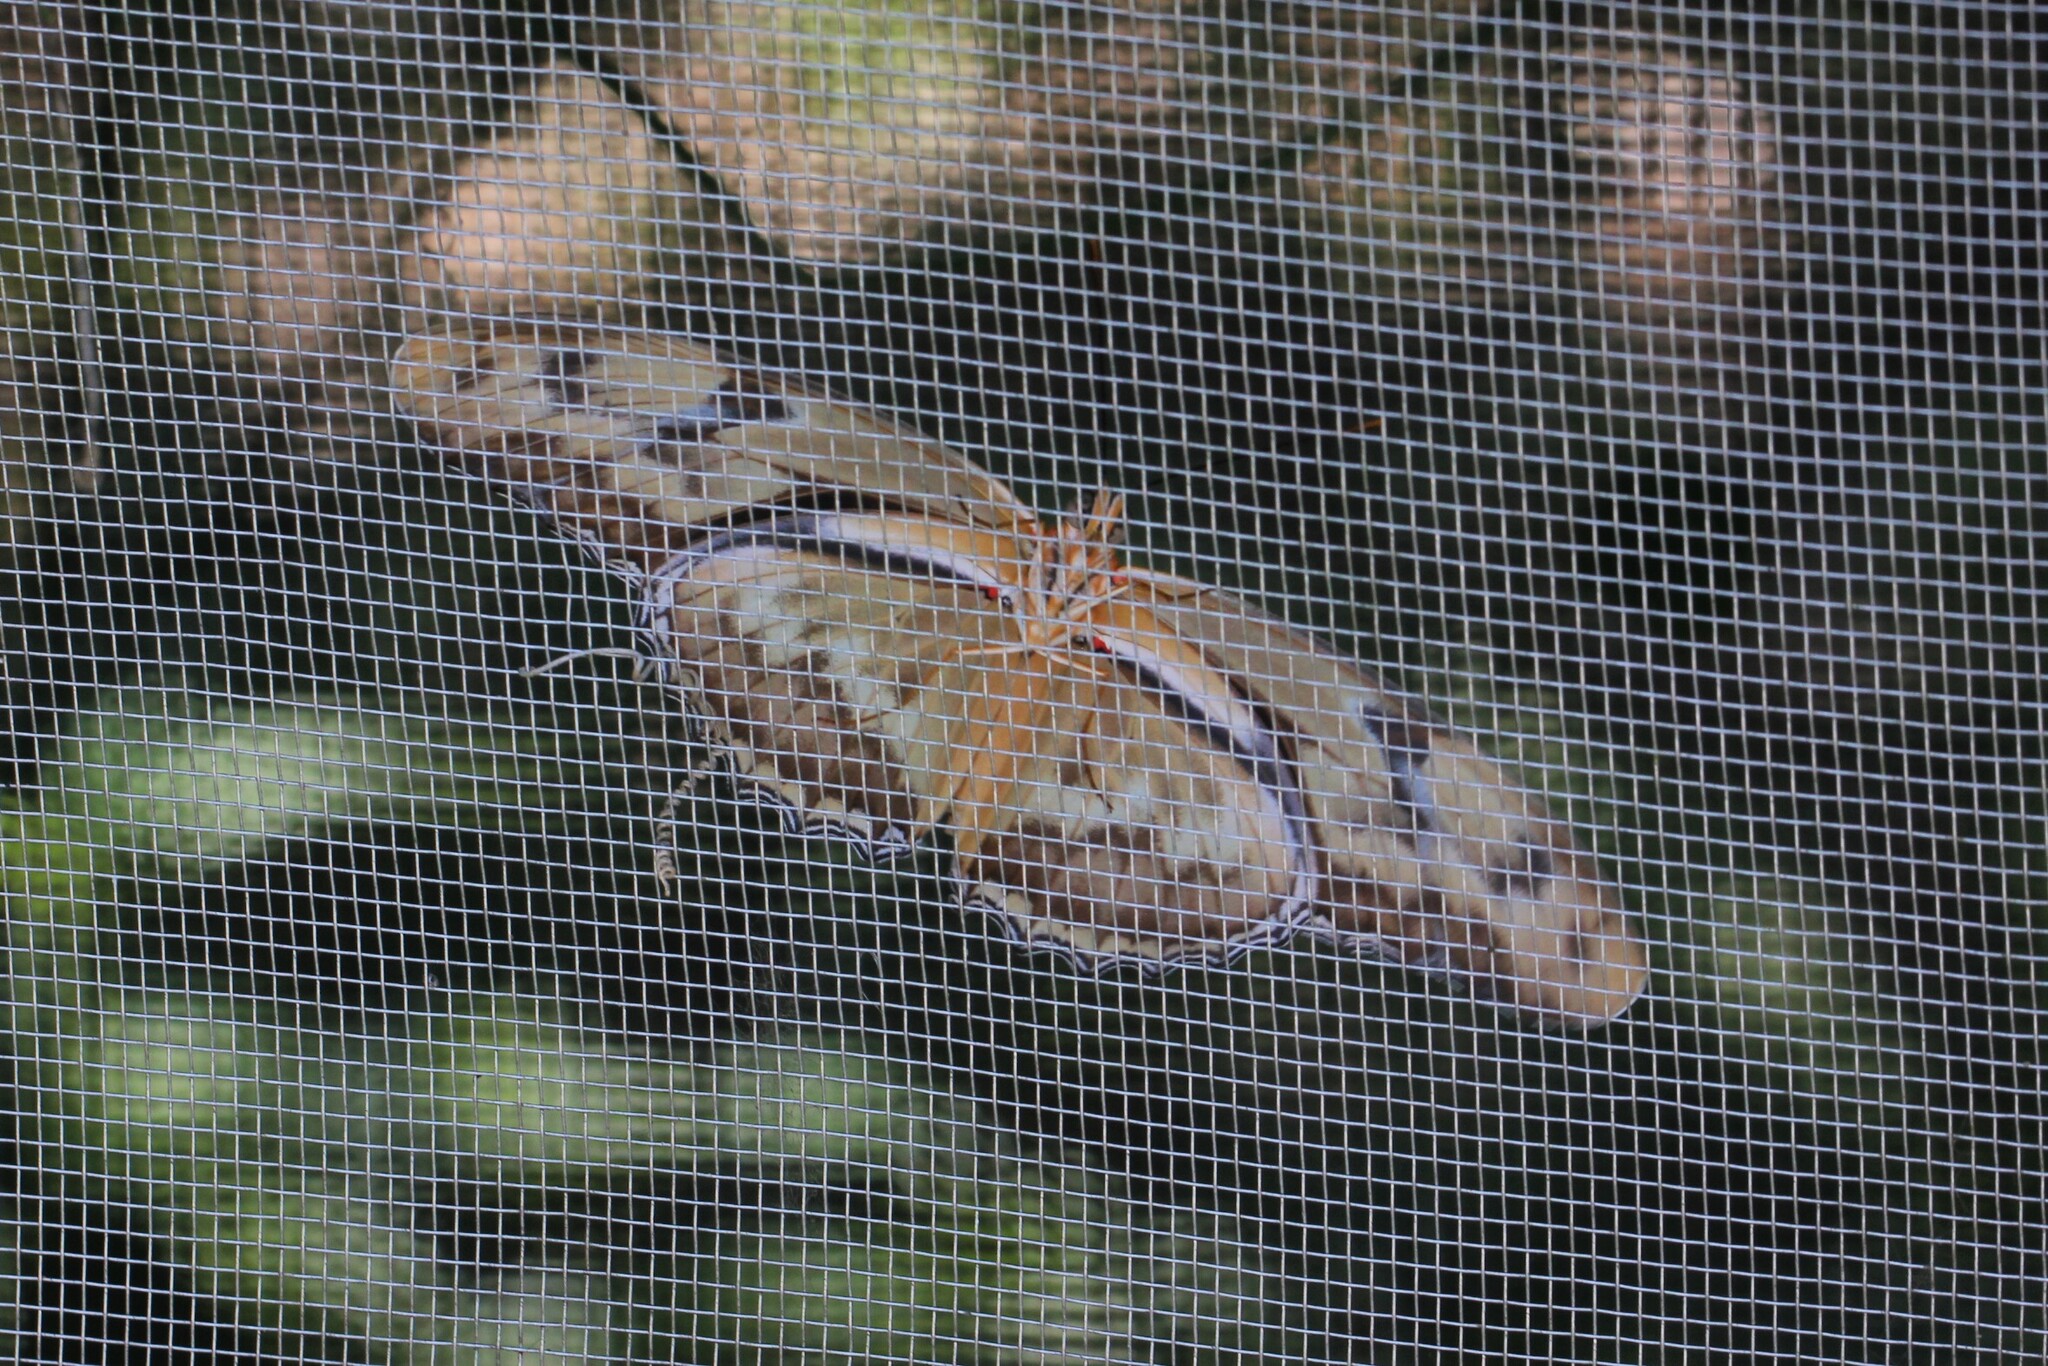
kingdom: Animalia
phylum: Arthropoda
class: Insecta
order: Lepidoptera
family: Nymphalidae
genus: Dryas
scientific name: Dryas iulia
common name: Flambeau
